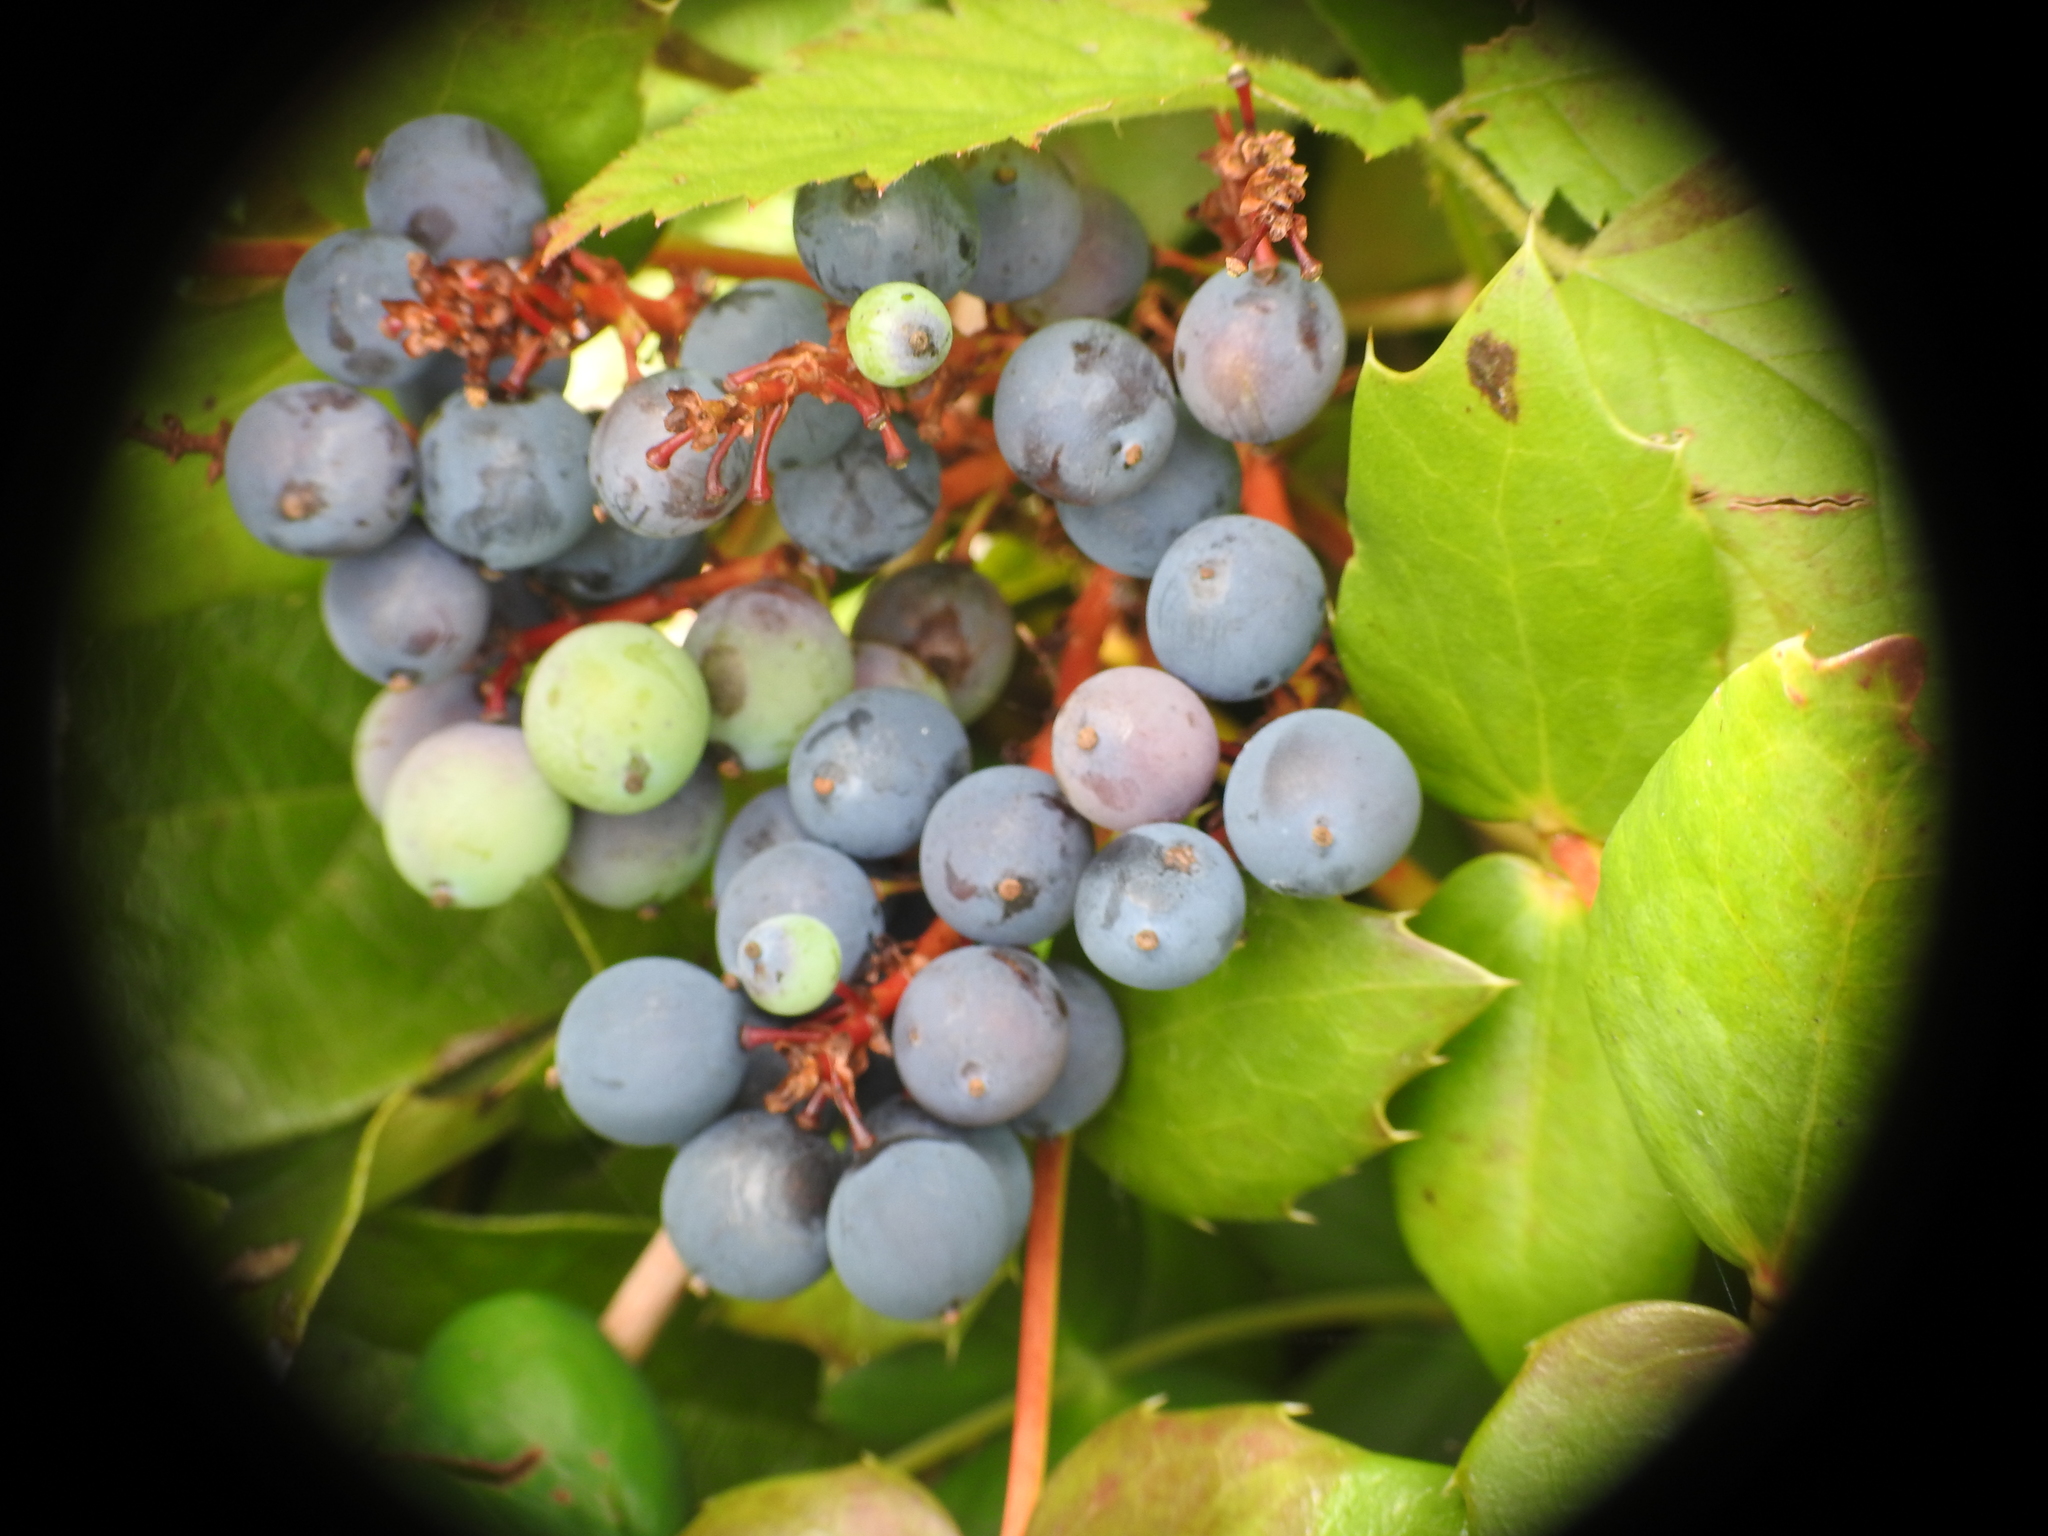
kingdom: Plantae
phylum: Tracheophyta
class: Magnoliopsida
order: Ranunculales
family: Berberidaceae
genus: Mahonia
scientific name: Mahonia nervosa
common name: Cascade oregon-grape
